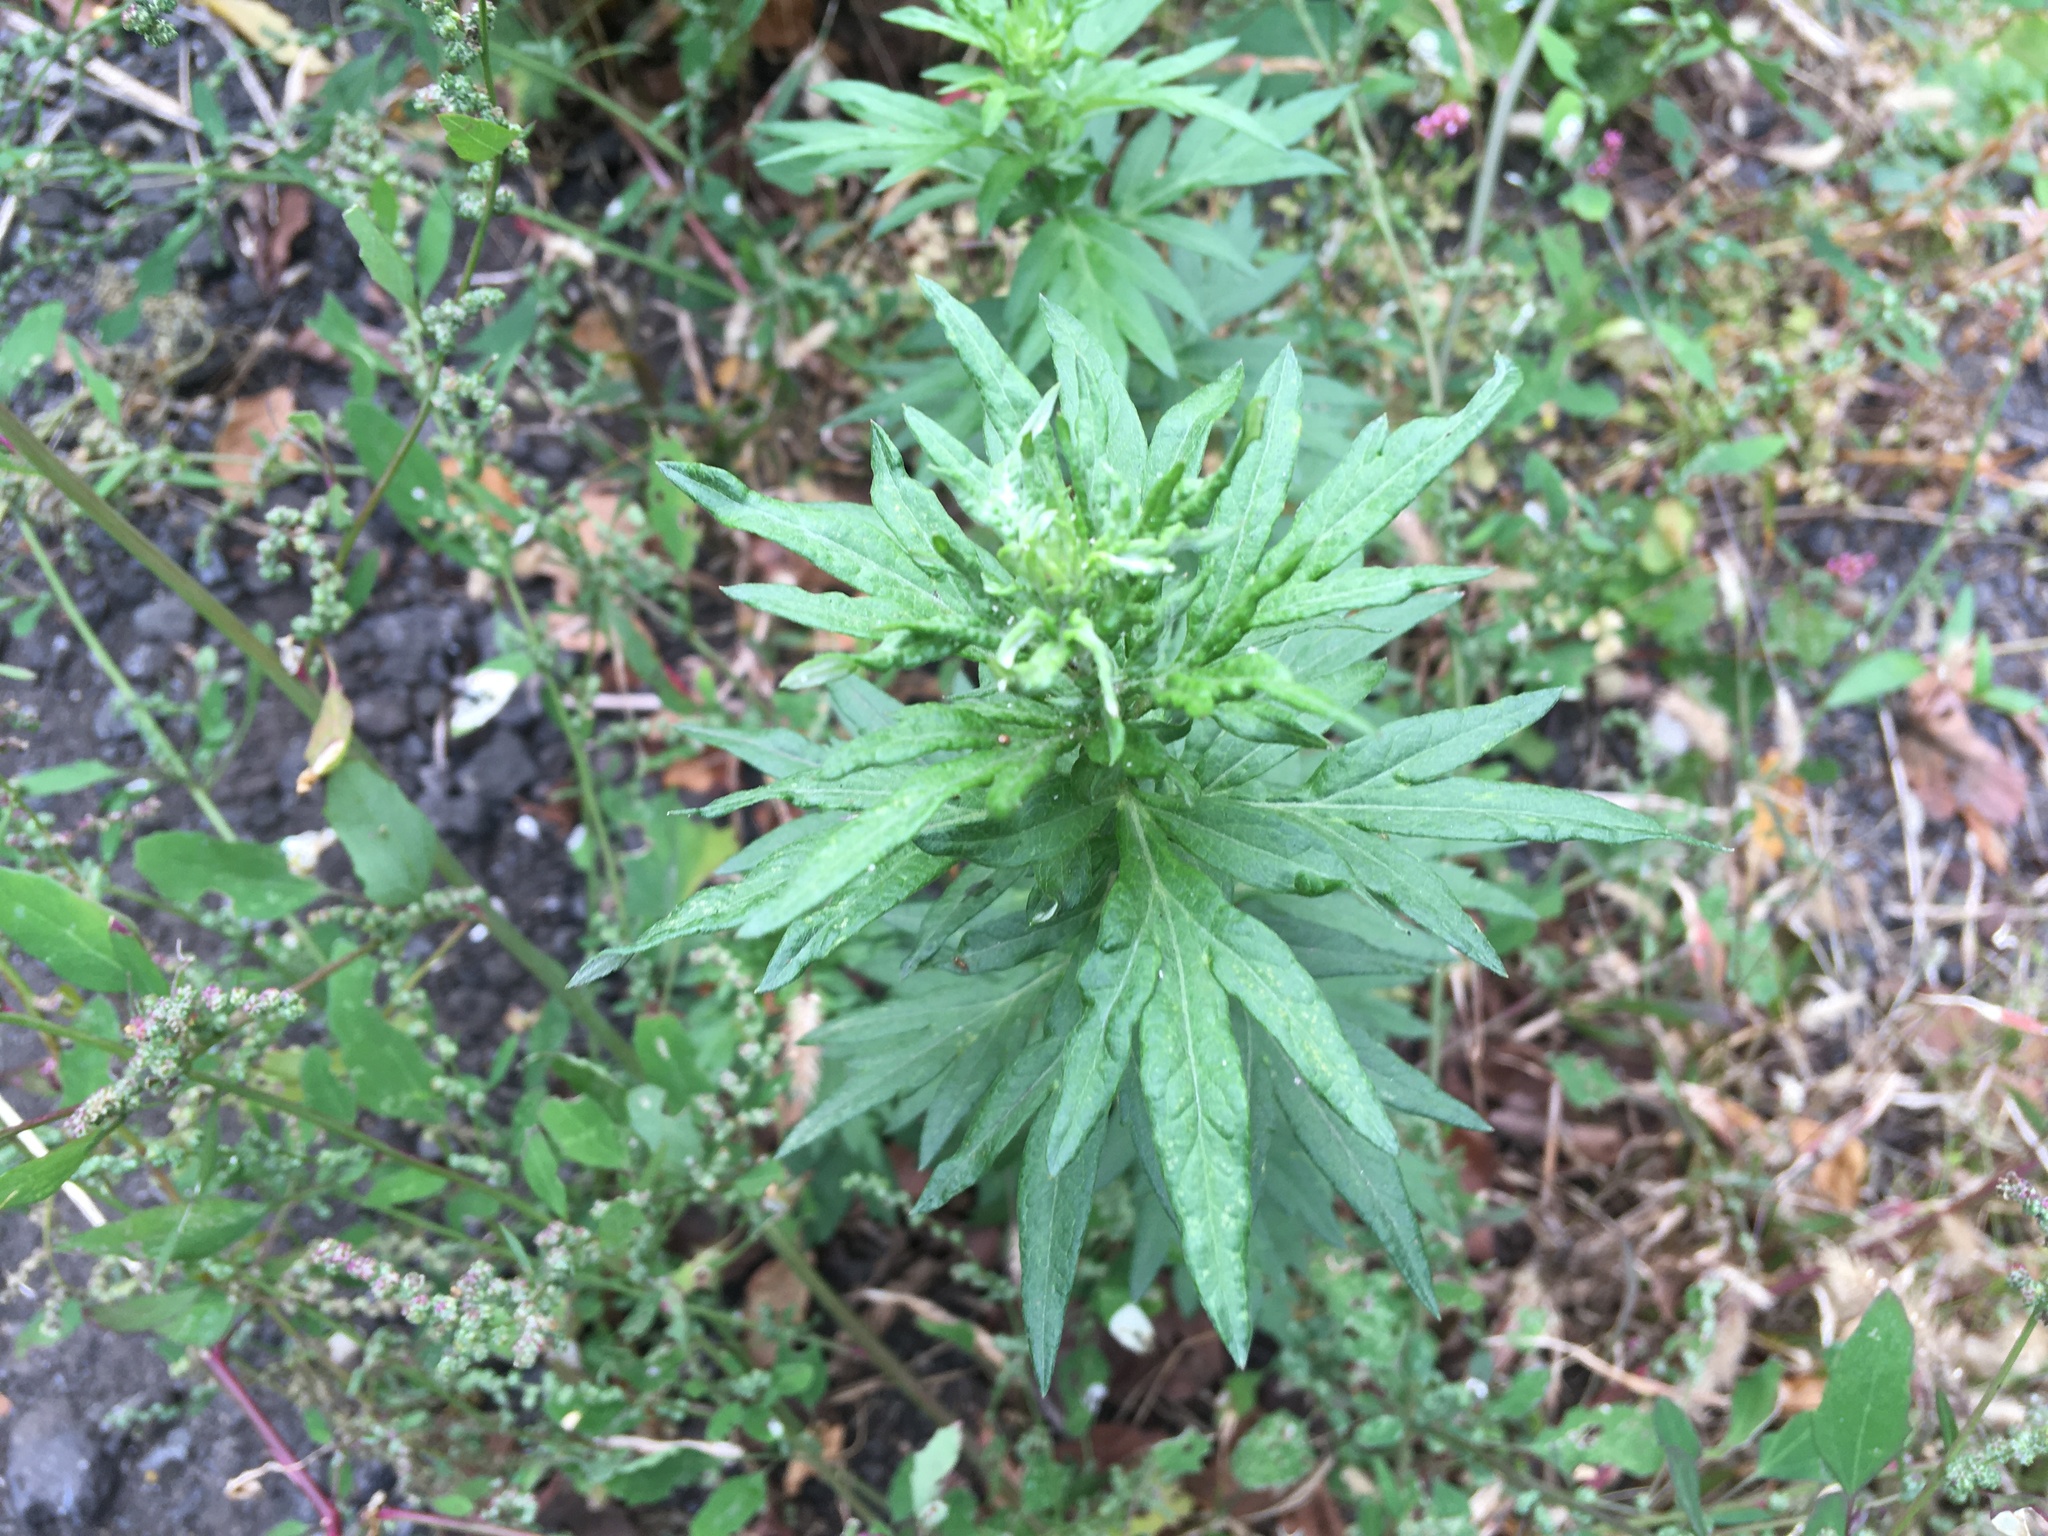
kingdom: Plantae
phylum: Tracheophyta
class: Magnoliopsida
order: Asterales
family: Asteraceae
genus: Artemisia
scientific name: Artemisia vulgaris
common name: Mugwort
